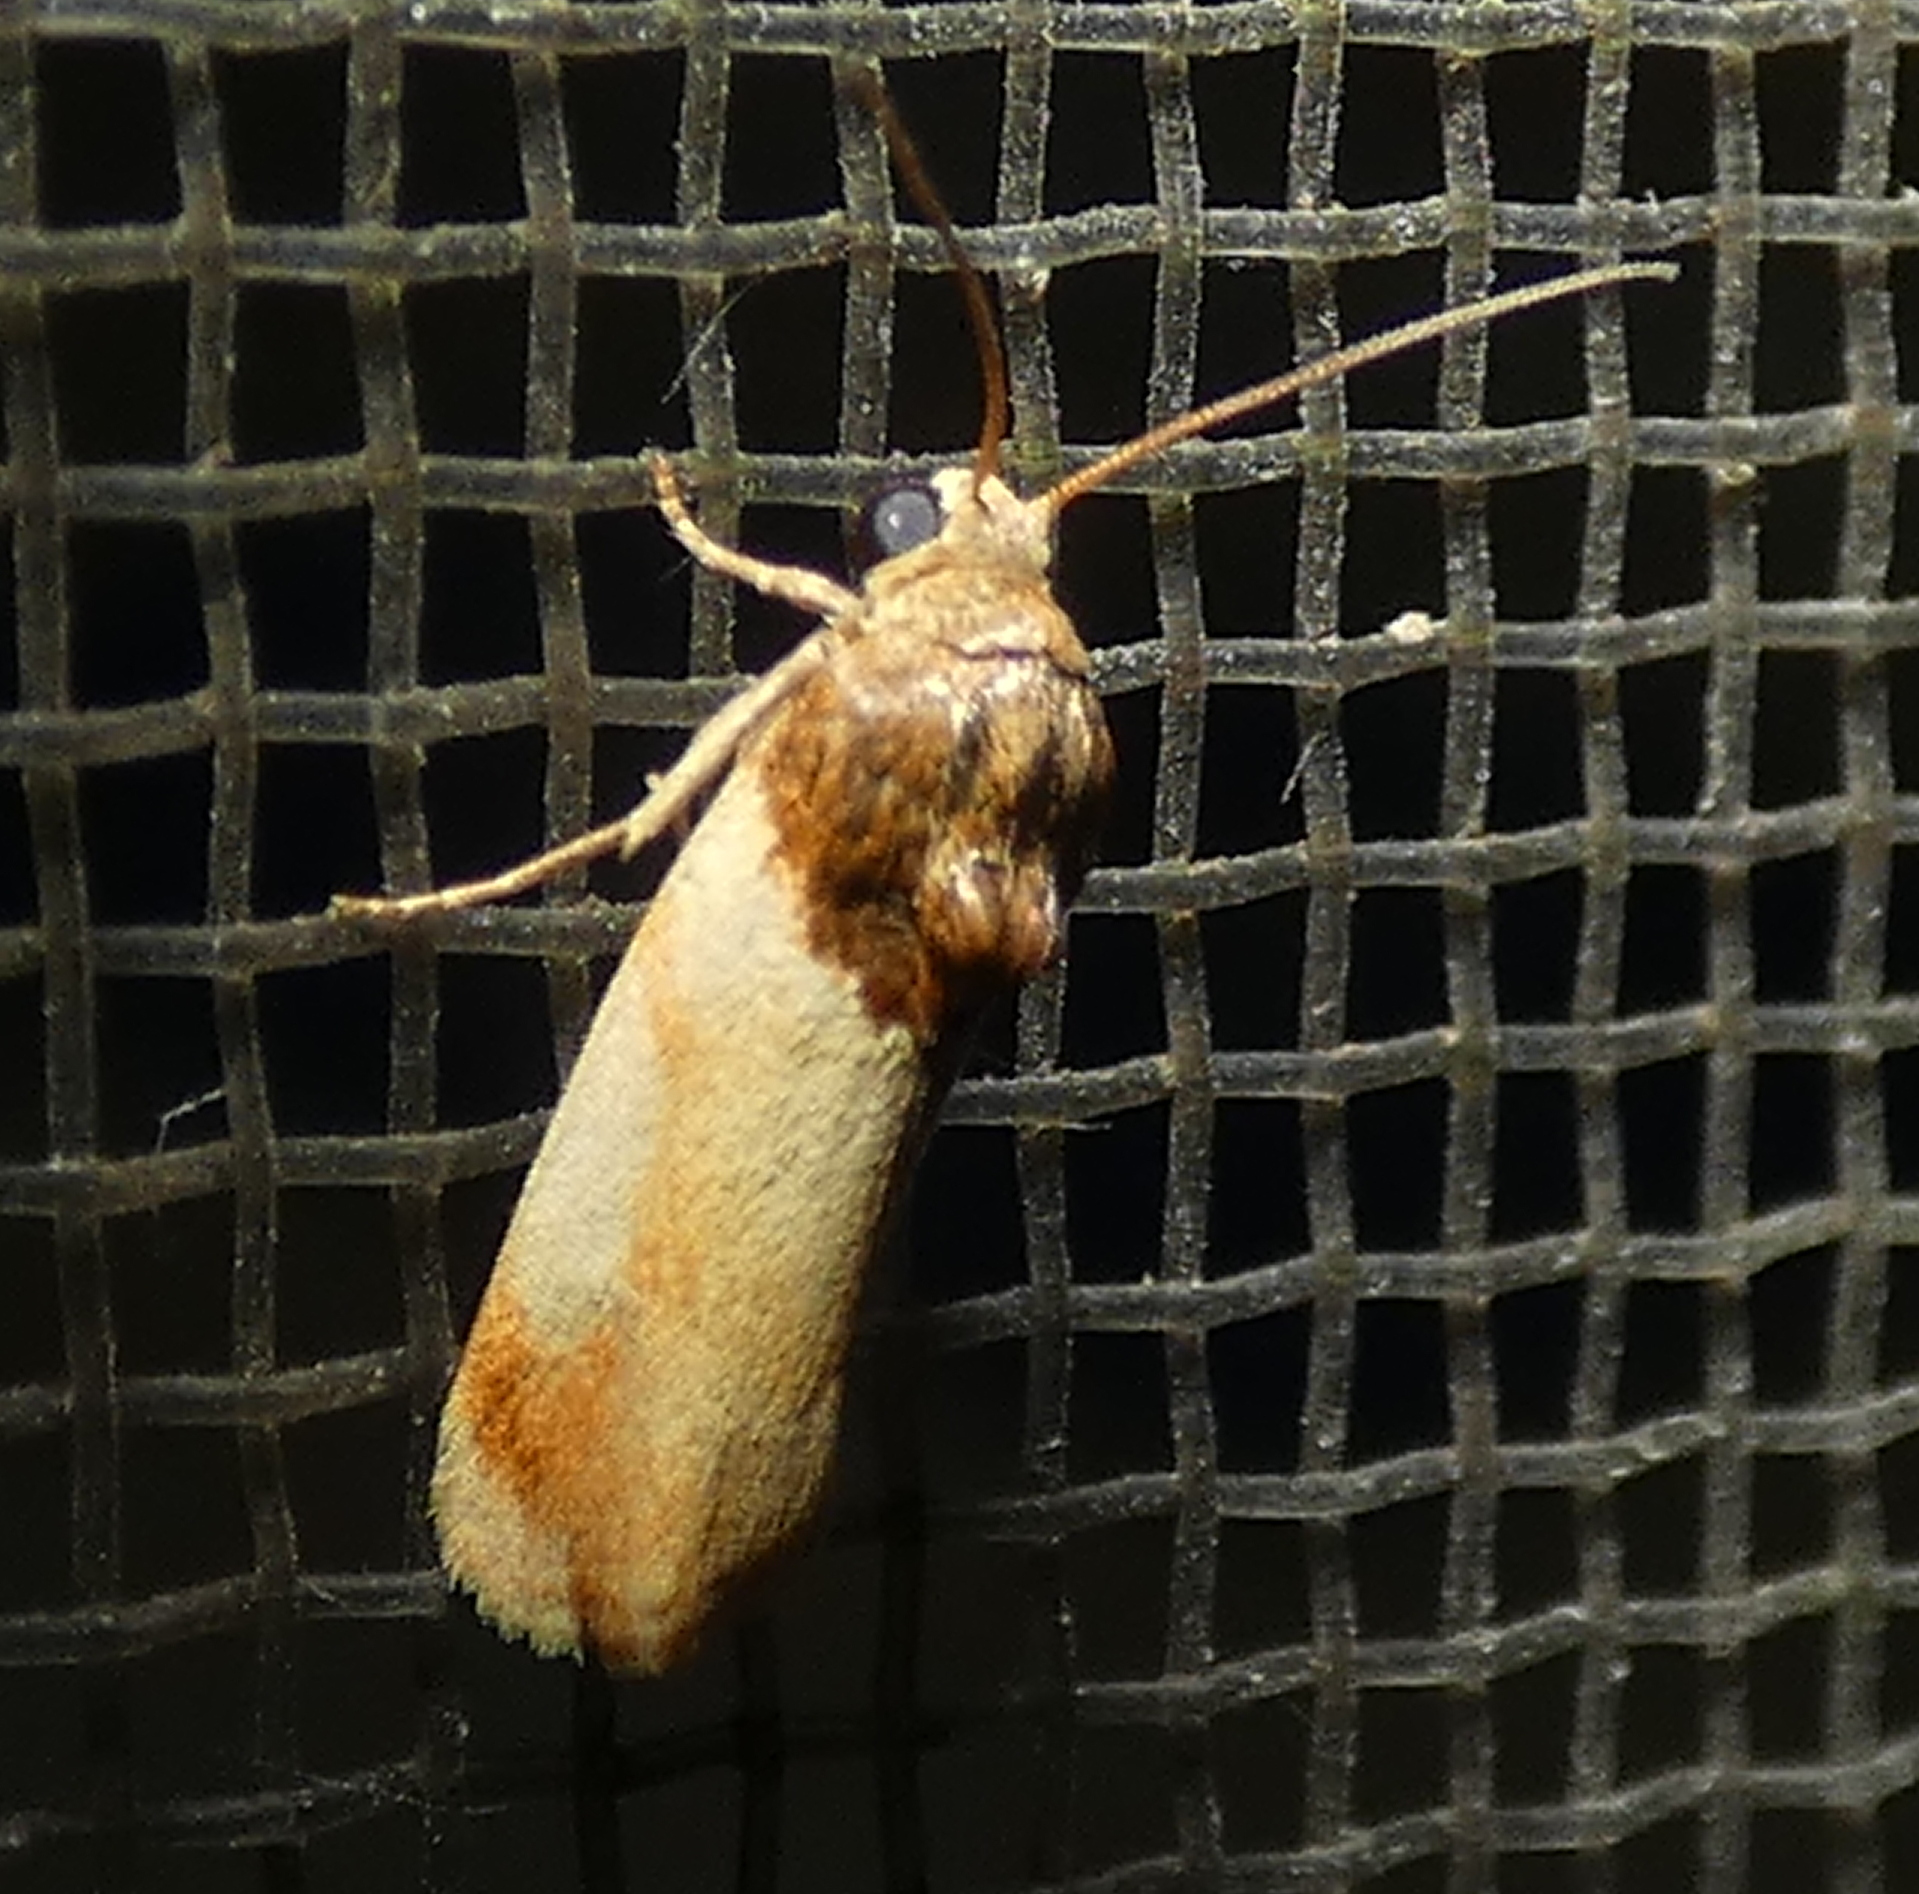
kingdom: Animalia
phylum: Arthropoda
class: Insecta
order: Lepidoptera
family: Noctuidae
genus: Spragueia
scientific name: Spragueia apicalis
